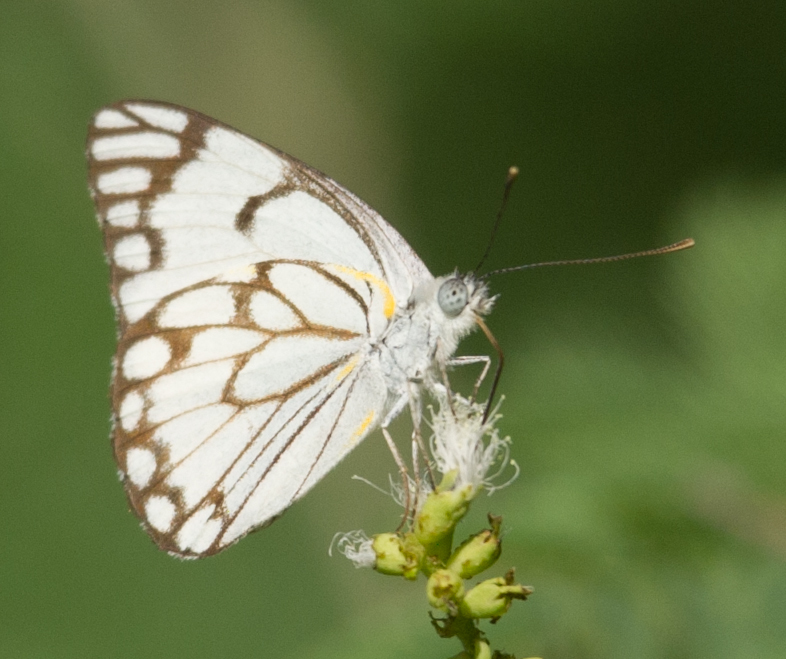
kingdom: Animalia
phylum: Arthropoda
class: Insecta
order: Lepidoptera
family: Pieridae
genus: Belenois
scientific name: Belenois aurota
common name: Brown-veined white
